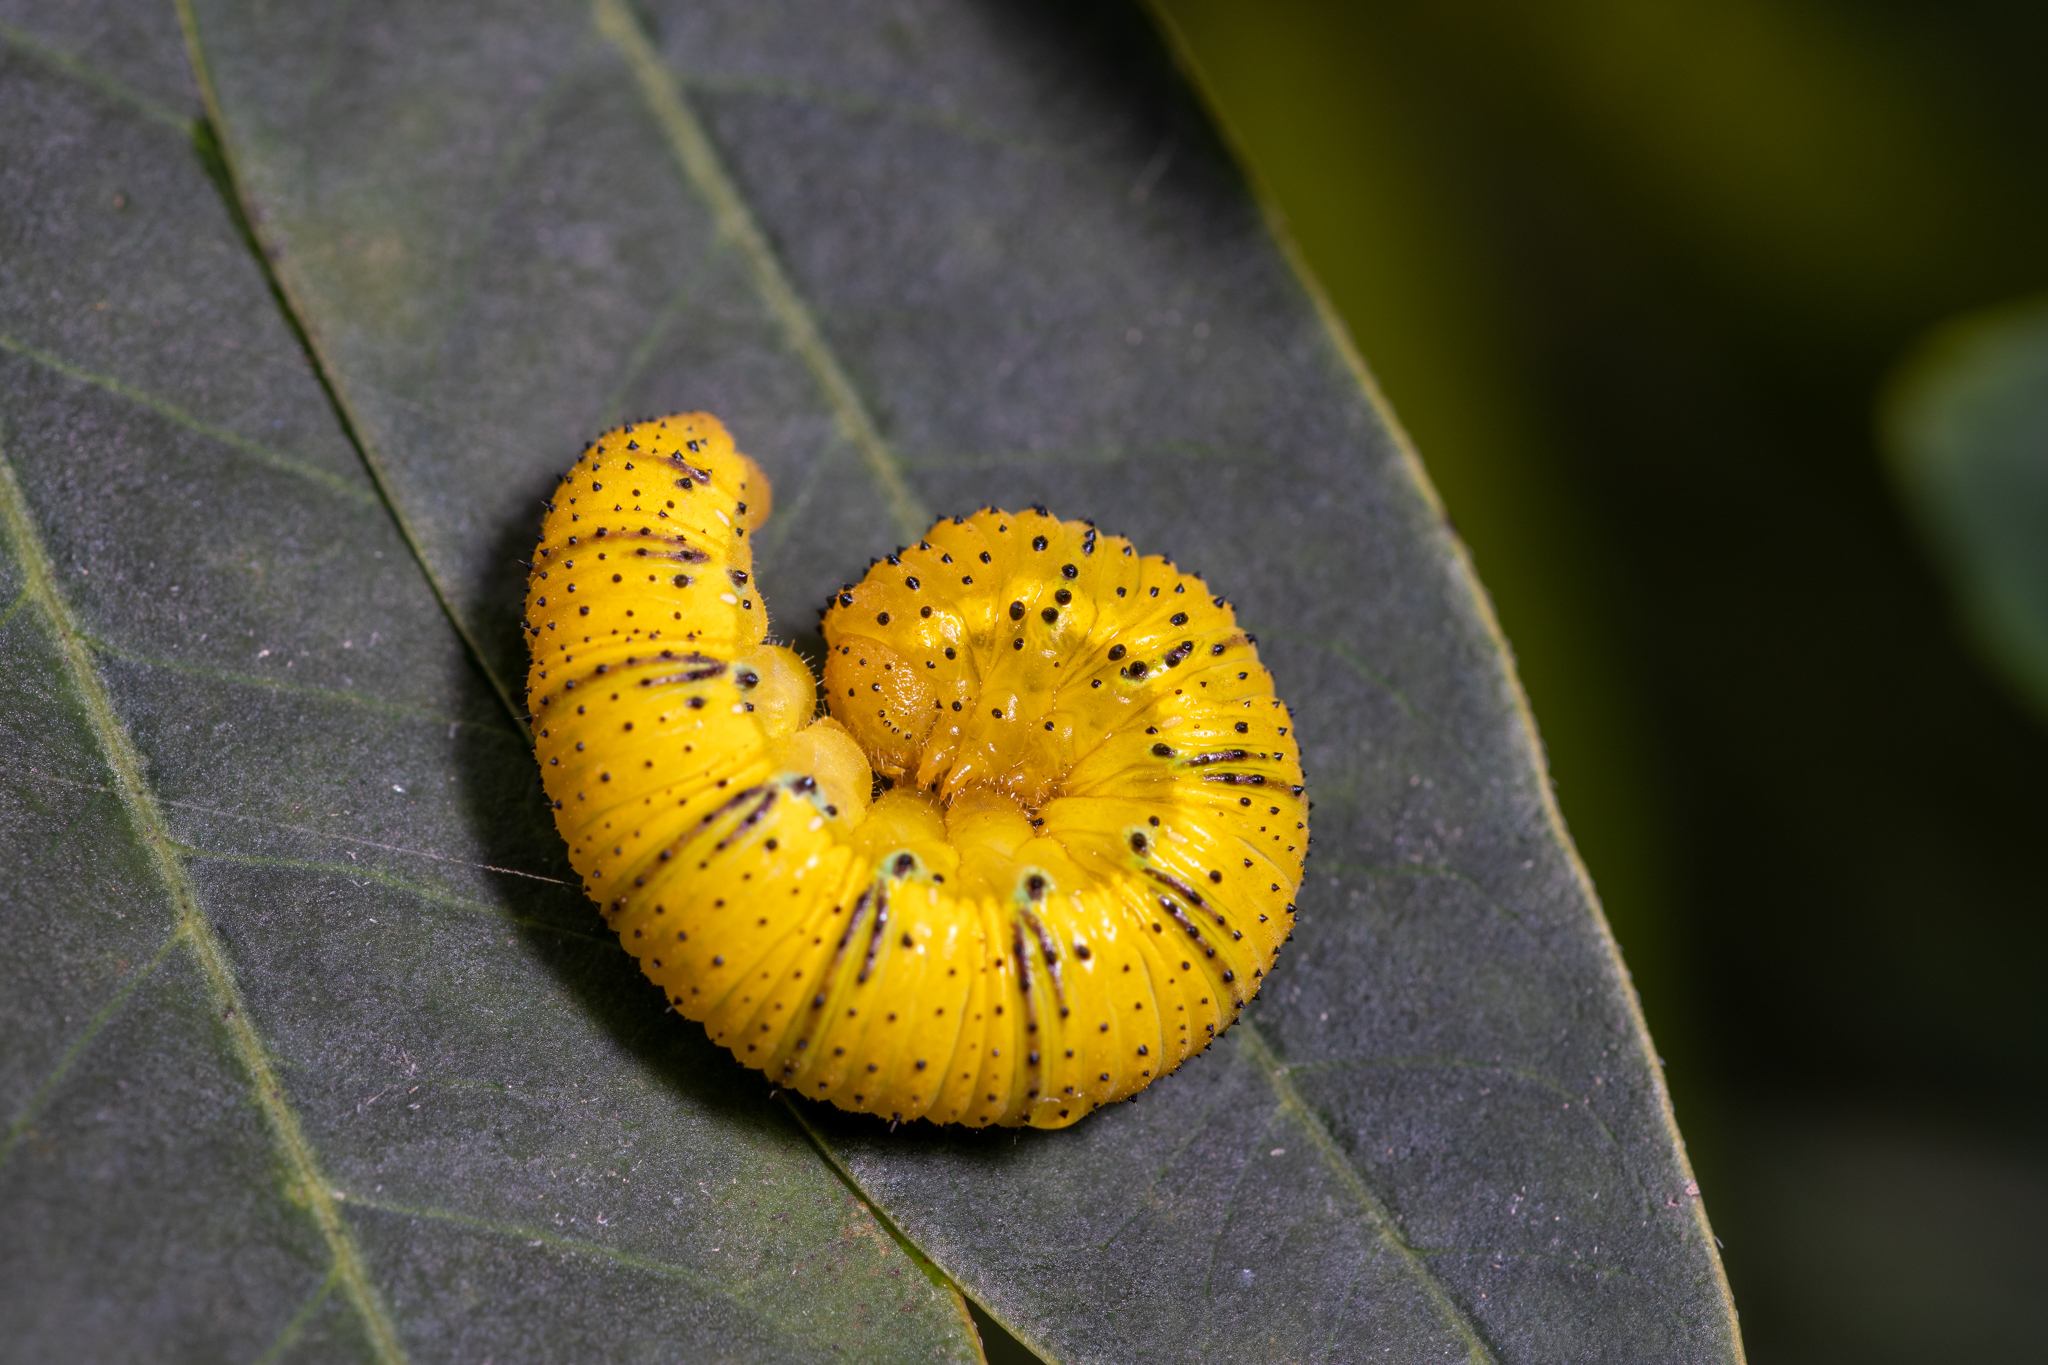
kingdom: Animalia
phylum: Arthropoda
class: Insecta
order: Lepidoptera
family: Pieridae
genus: Phoebis
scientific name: Phoebis sennae
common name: Cloudless sulphur
